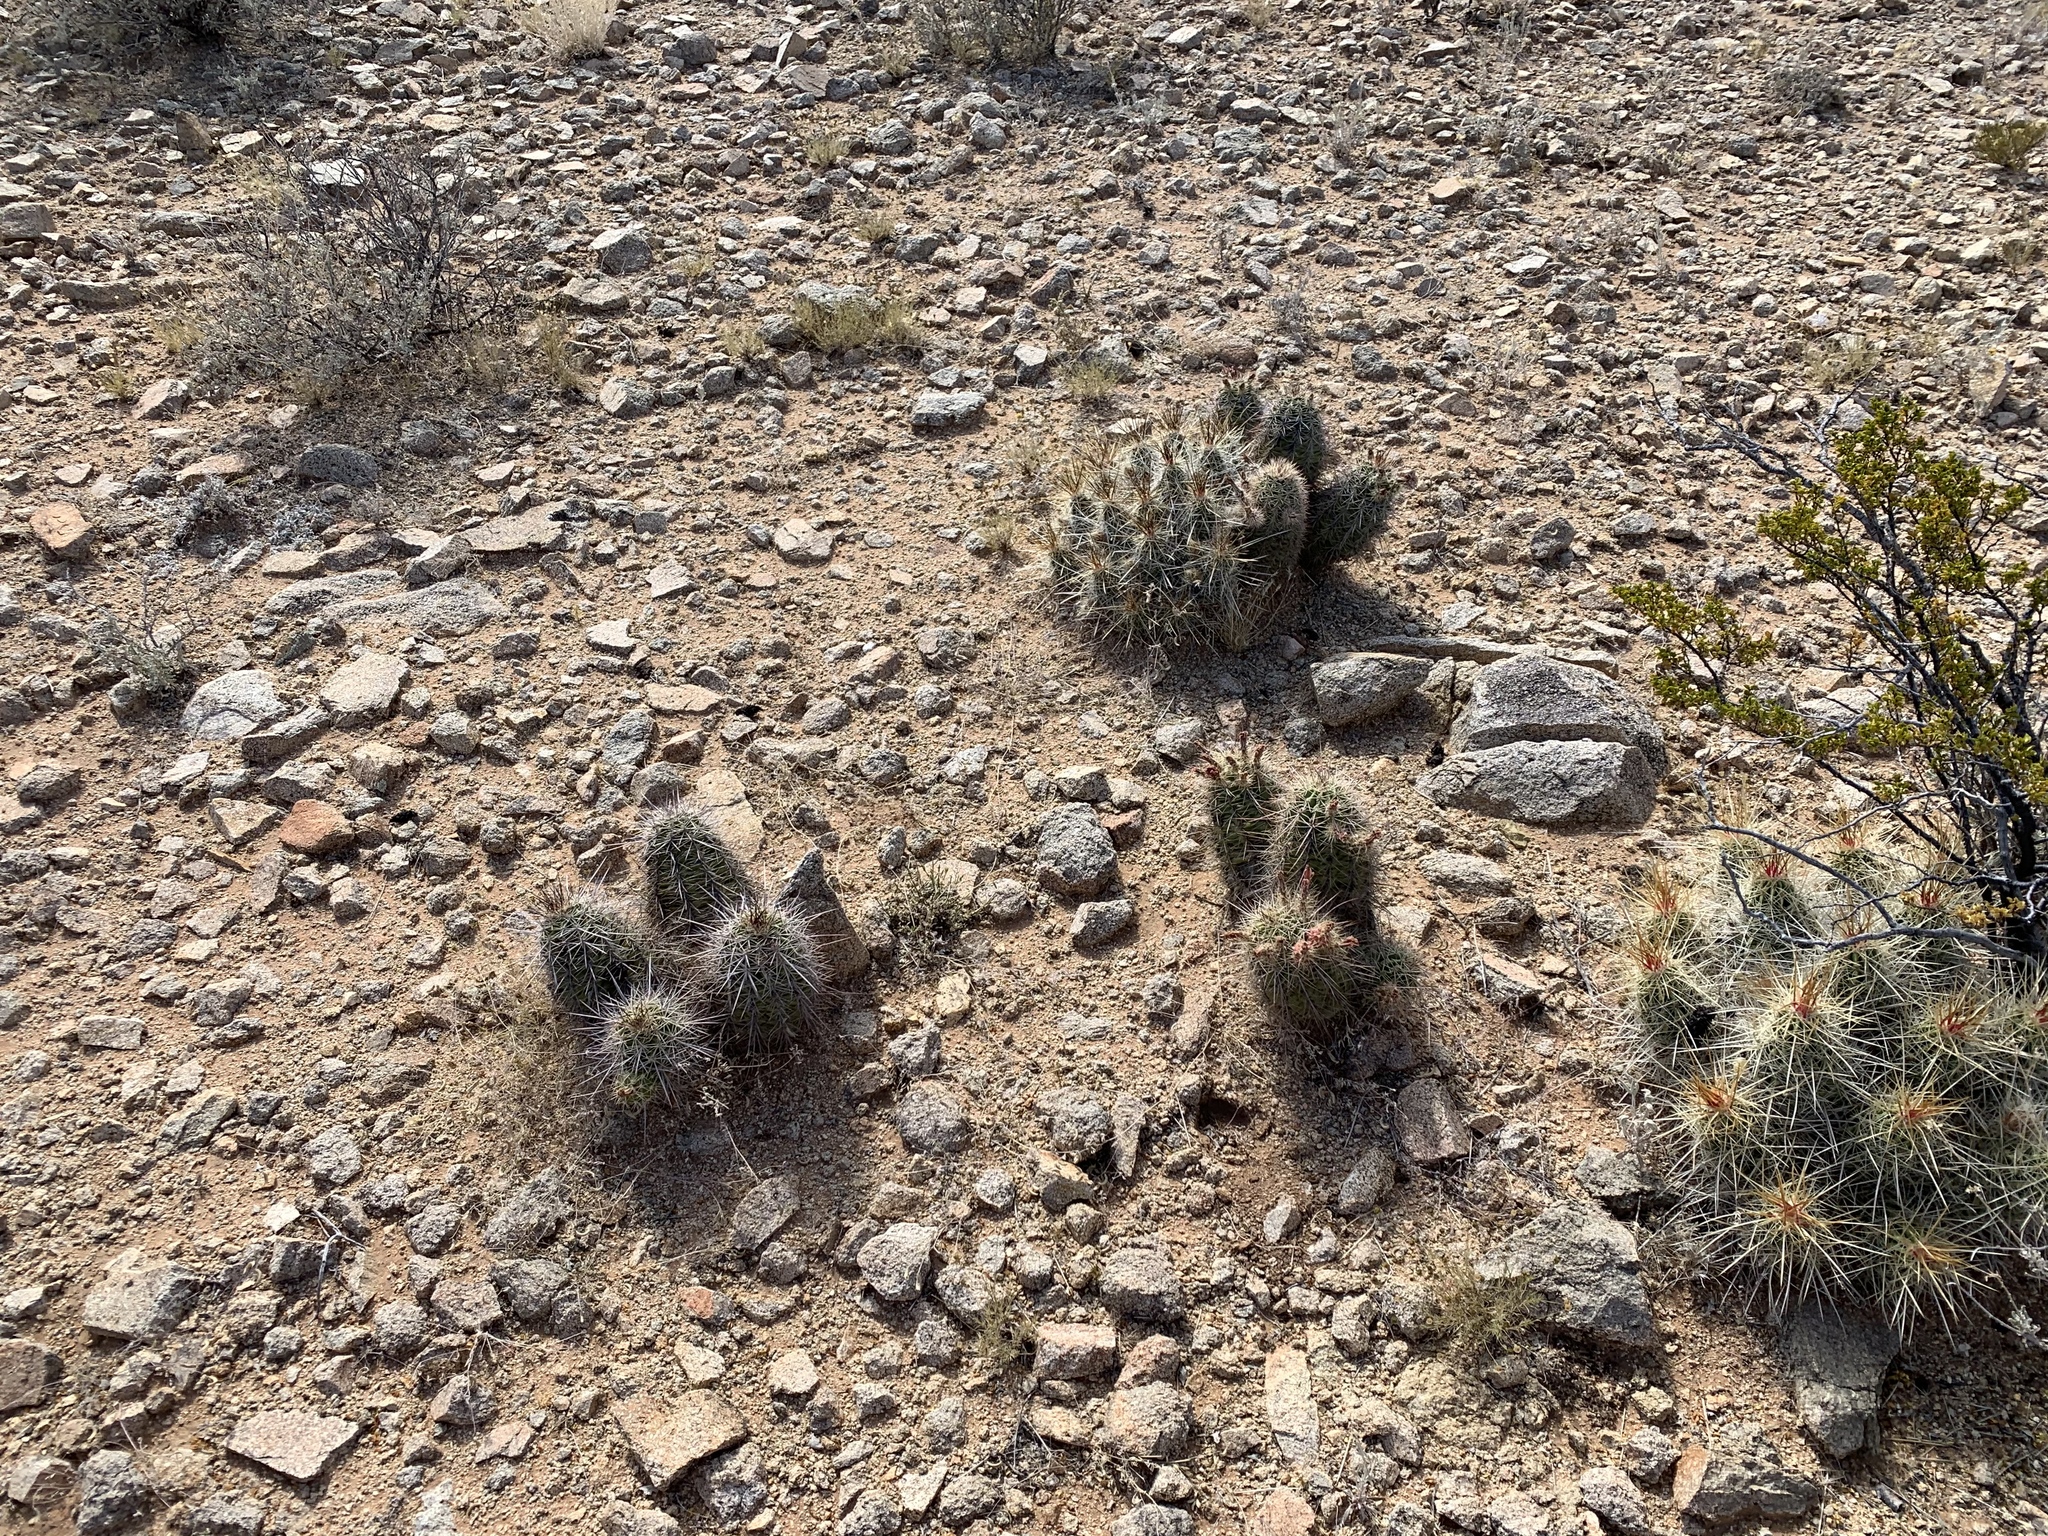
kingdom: Plantae
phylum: Tracheophyta
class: Magnoliopsida
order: Caryophyllales
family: Cactaceae
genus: Echinocereus
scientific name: Echinocereus coccineus
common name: Scarlet hedgehog cactus
